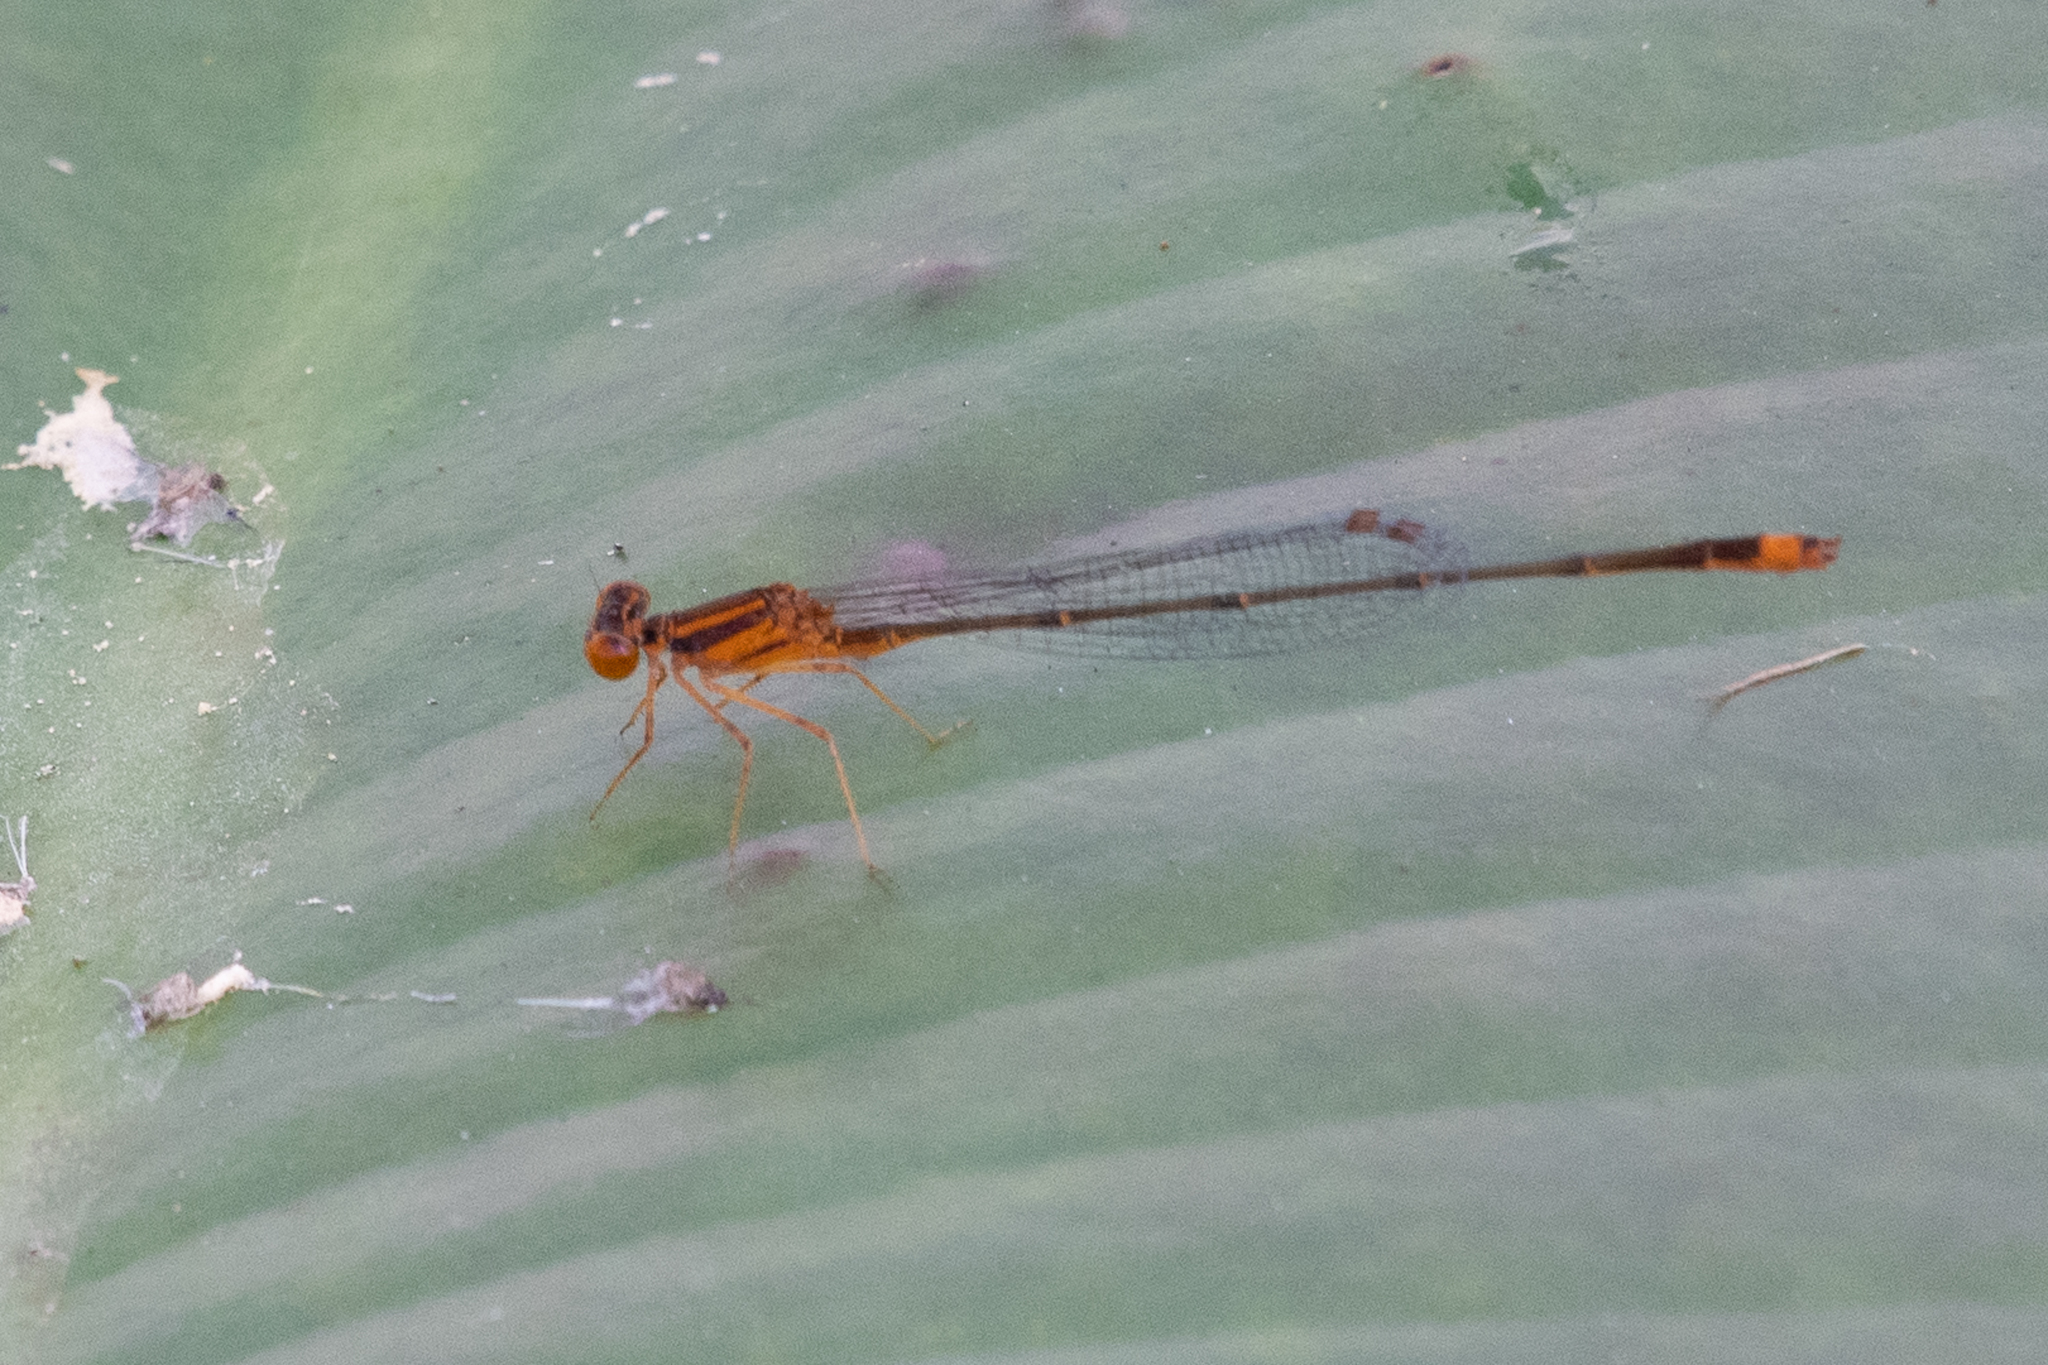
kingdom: Animalia
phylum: Arthropoda
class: Insecta
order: Odonata
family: Coenagrionidae
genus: Enallagma
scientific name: Enallagma pollutum
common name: Florida bluet
